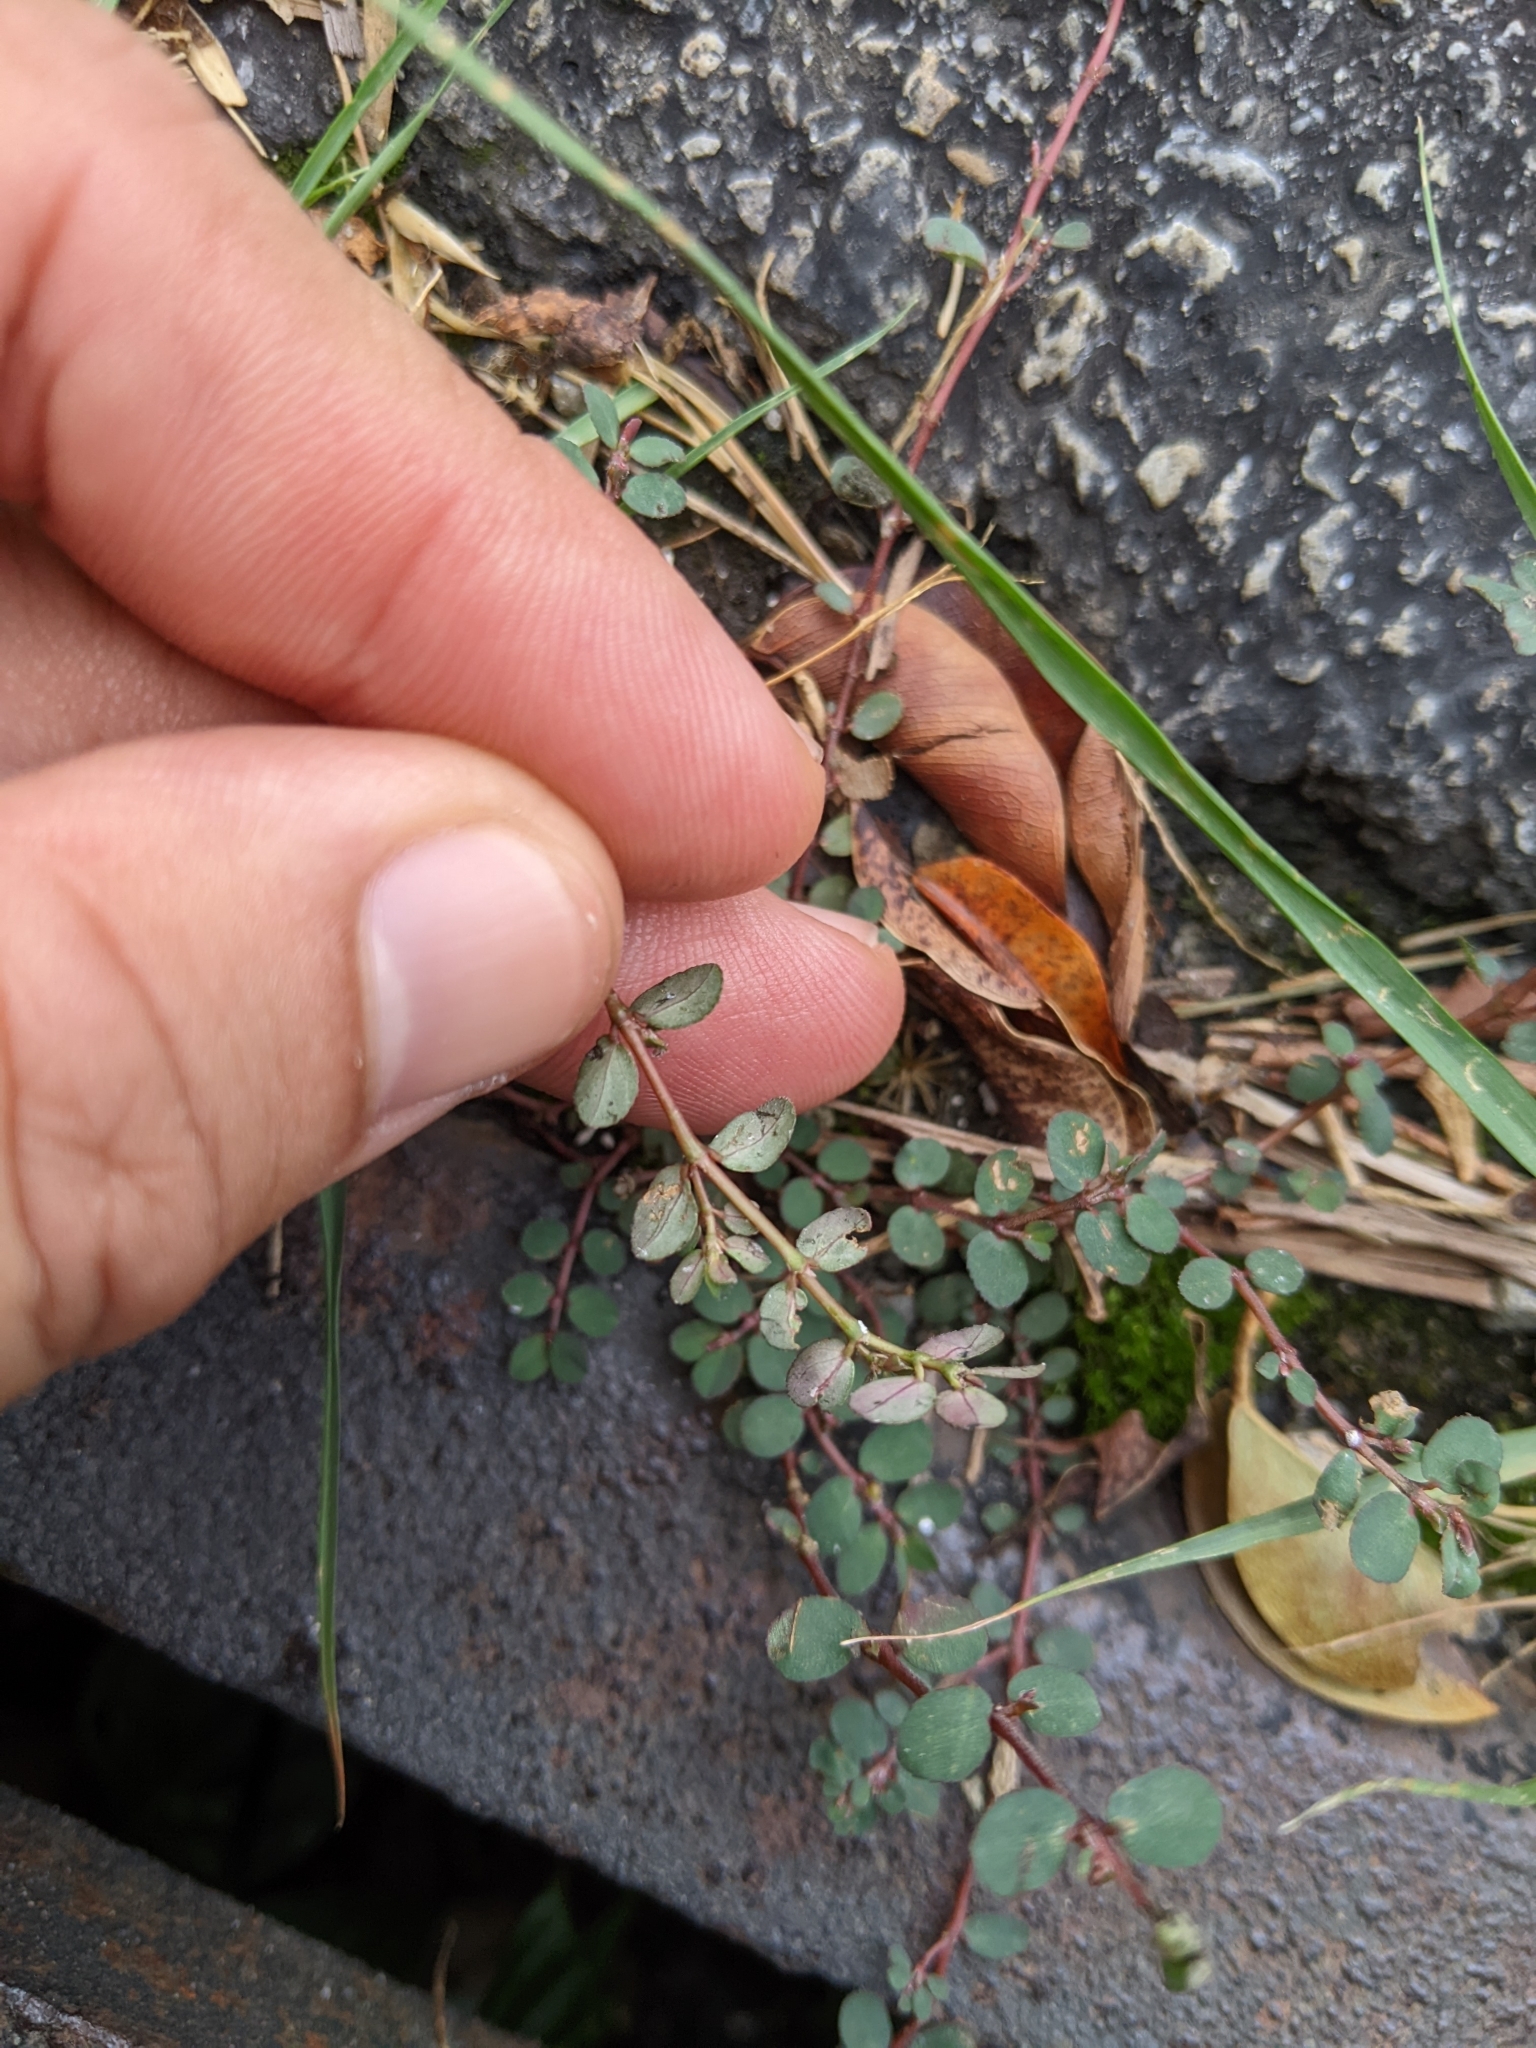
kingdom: Plantae
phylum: Tracheophyta
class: Magnoliopsida
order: Malpighiales
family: Euphorbiaceae
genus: Euphorbia
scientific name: Euphorbia prostrata
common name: Prostrate sandmat
